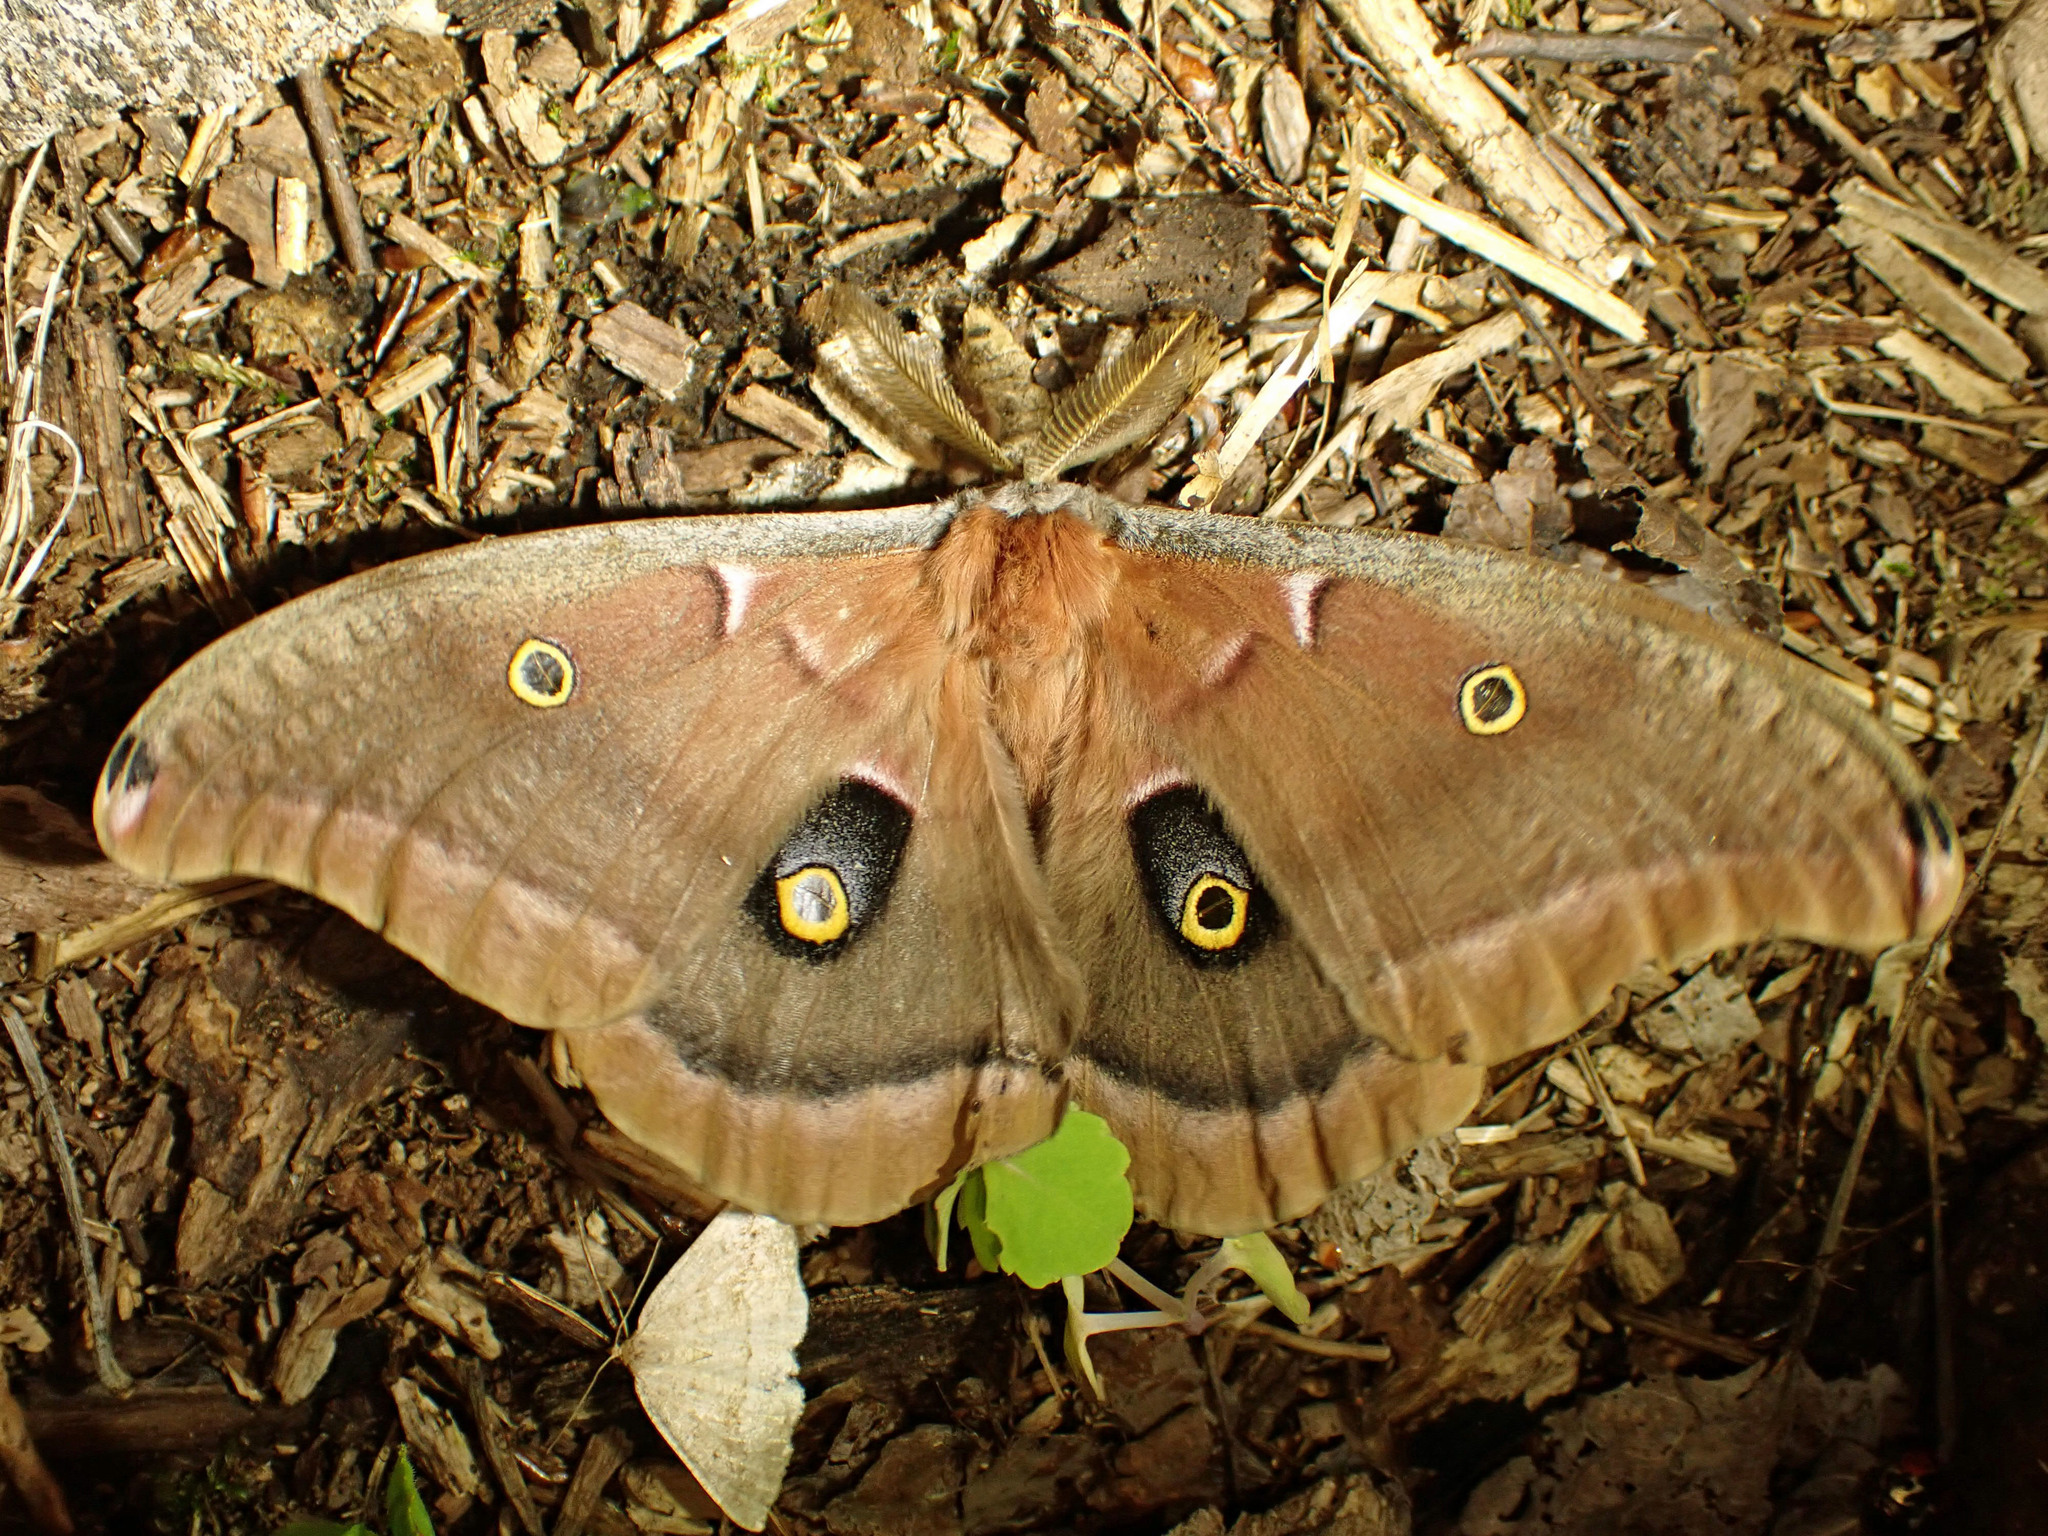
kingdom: Animalia
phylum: Arthropoda
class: Insecta
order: Lepidoptera
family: Saturniidae
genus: Antheraea
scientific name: Antheraea polyphemus
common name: Polyphemus moth
